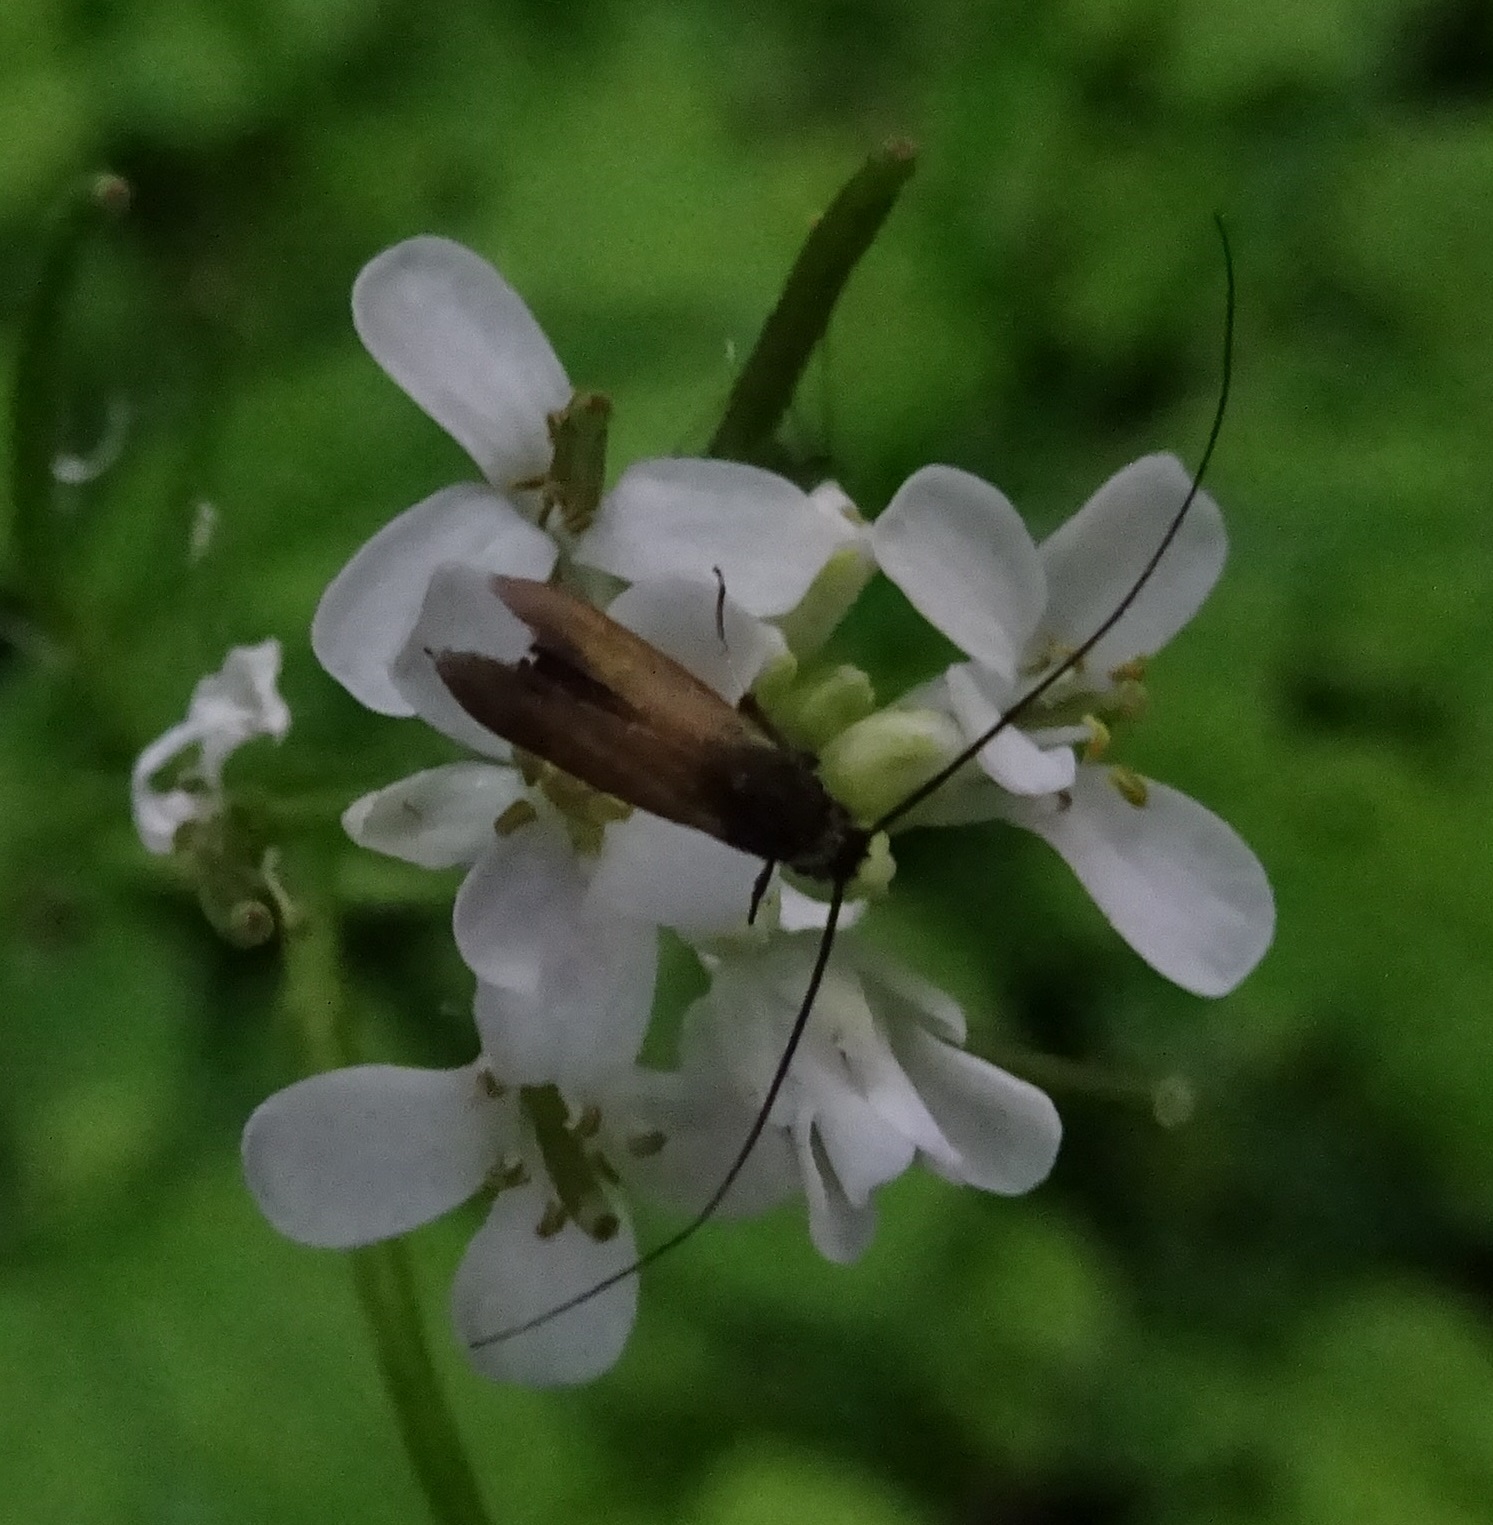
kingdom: Animalia
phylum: Arthropoda
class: Insecta
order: Lepidoptera
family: Adelidae
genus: Cauchas
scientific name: Cauchas rufimitrella
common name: Meadow long-horn
